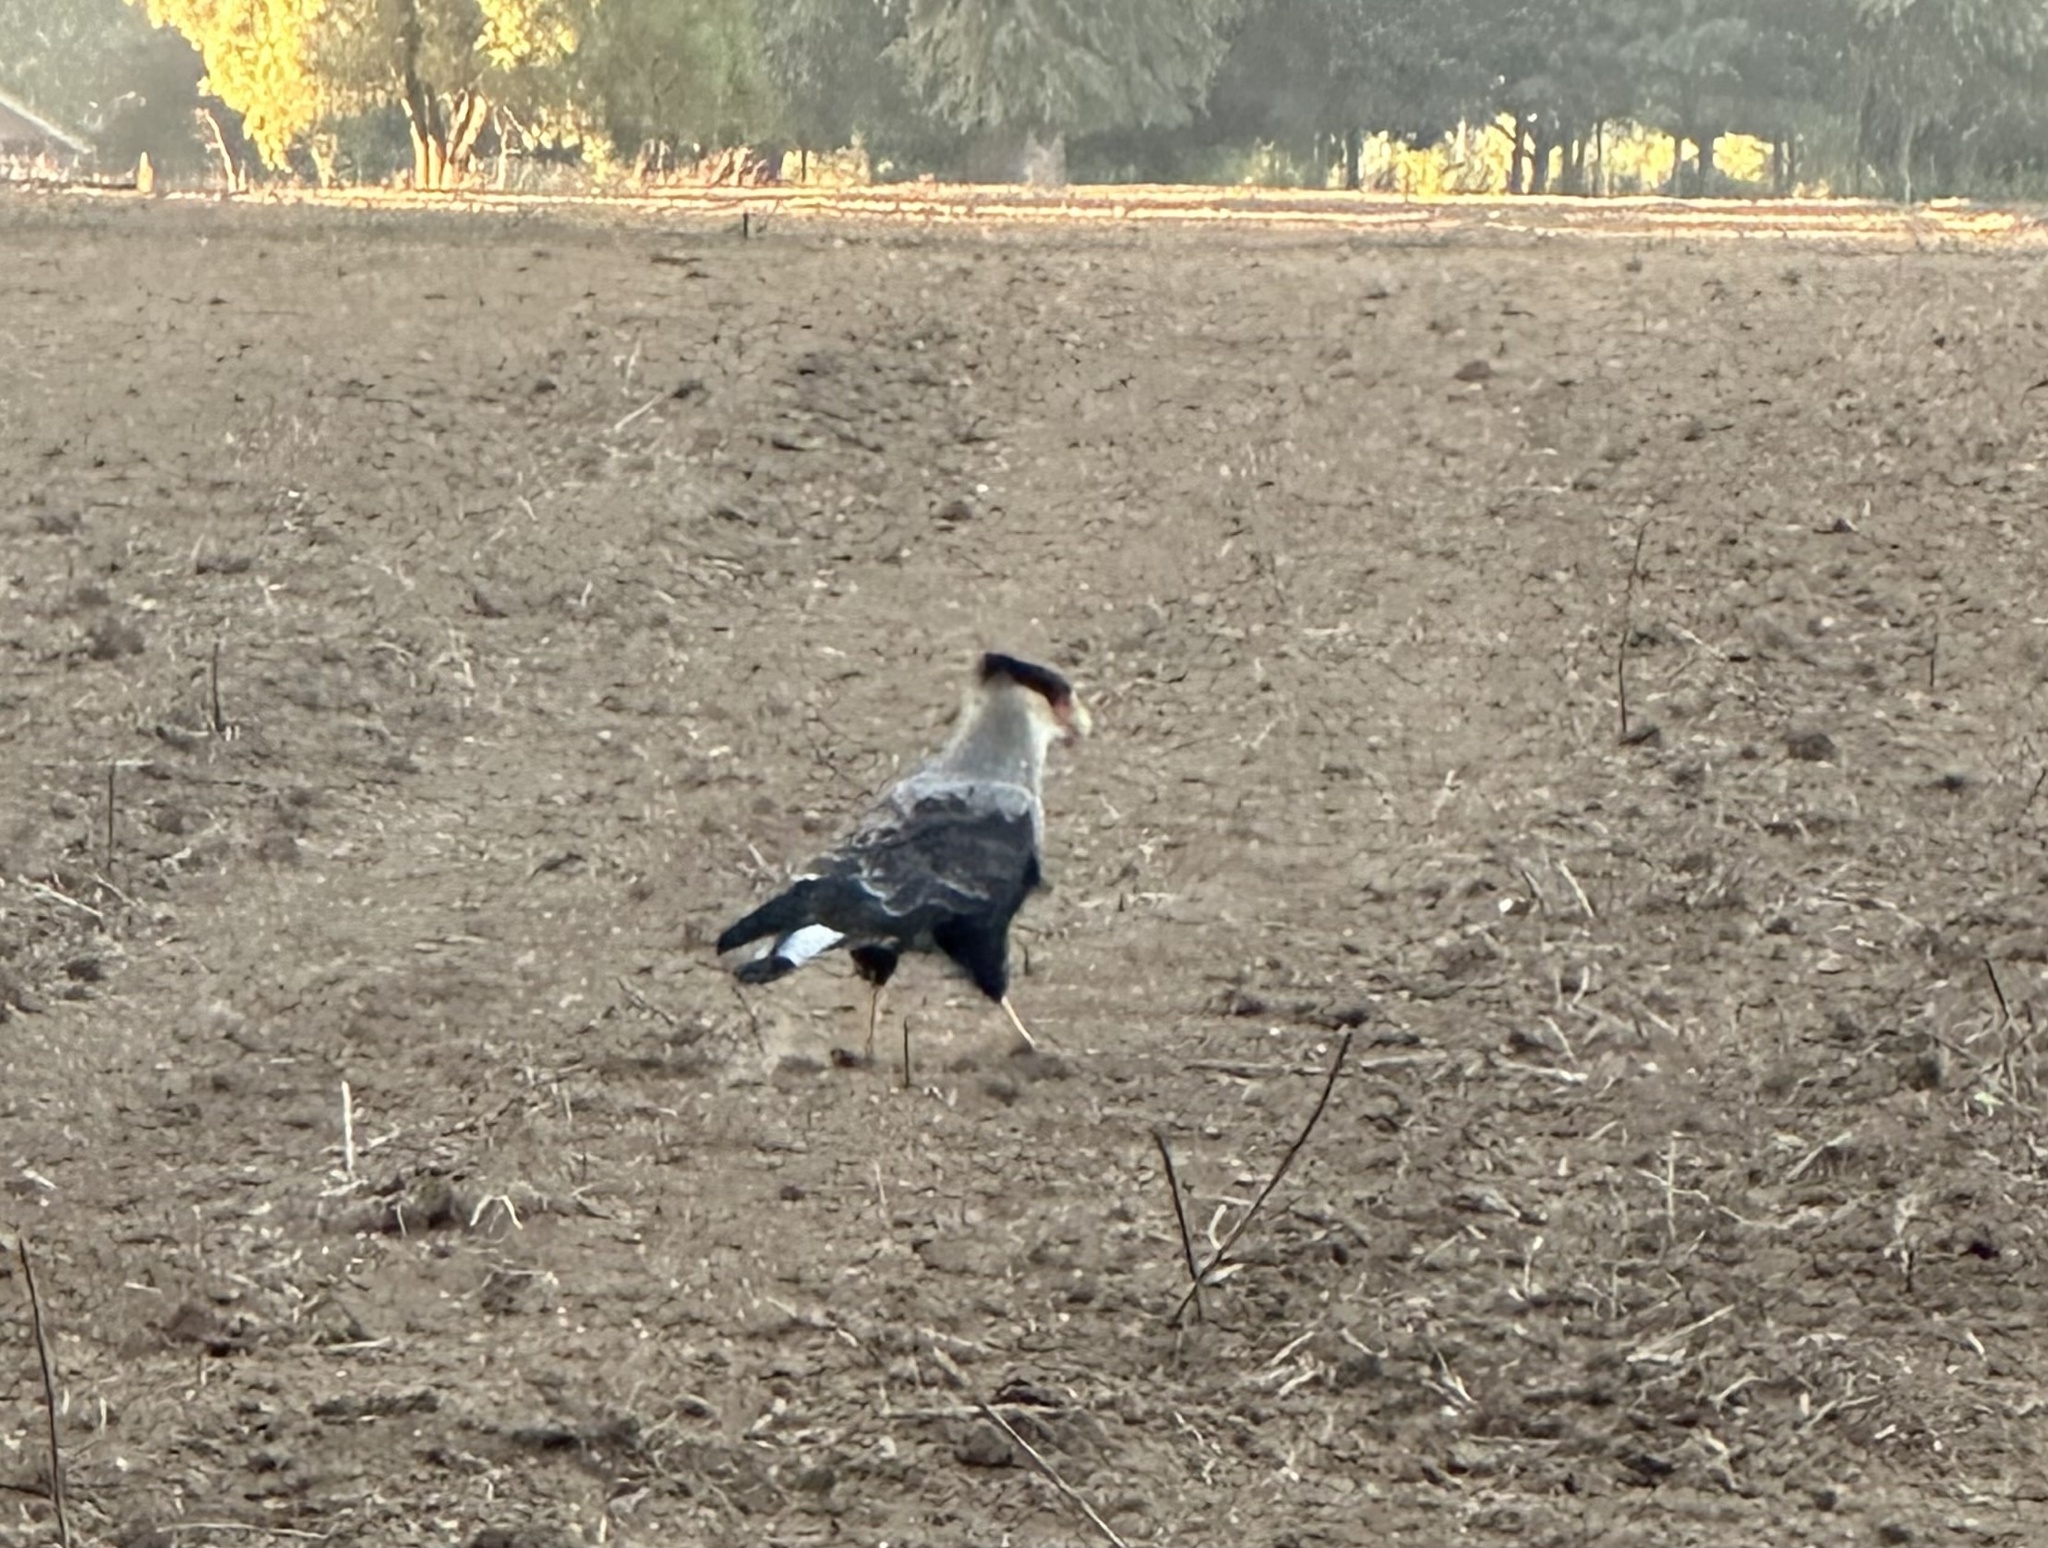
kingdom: Animalia
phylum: Chordata
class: Aves
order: Falconiformes
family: Falconidae
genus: Caracara
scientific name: Caracara plancus
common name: Southern caracara
